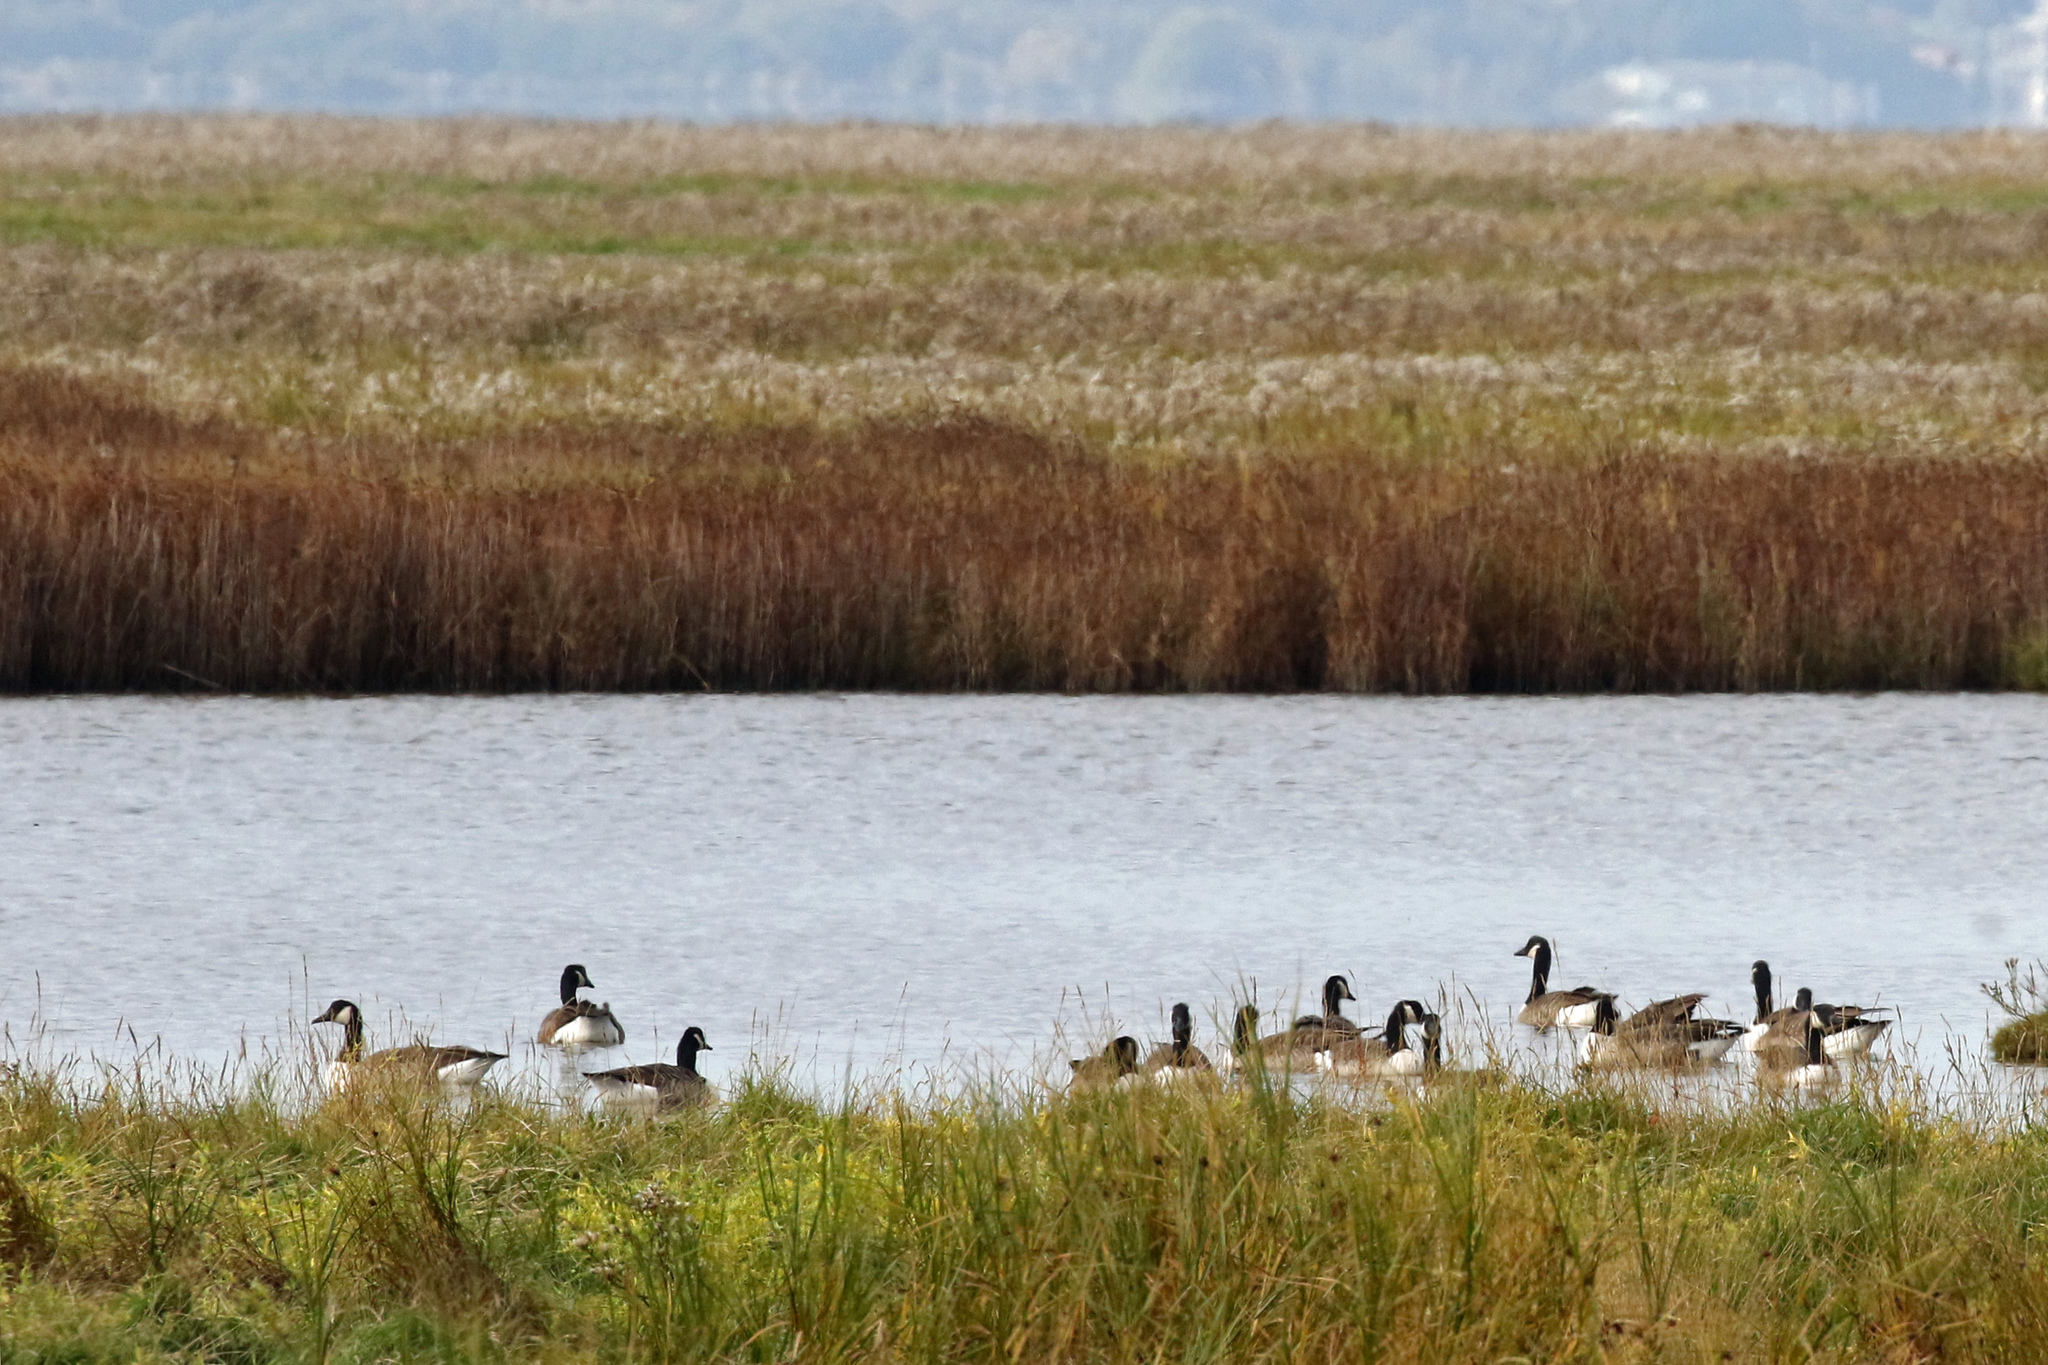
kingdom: Animalia
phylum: Chordata
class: Aves
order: Anseriformes
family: Anatidae
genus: Branta
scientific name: Branta canadensis
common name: Canada goose
